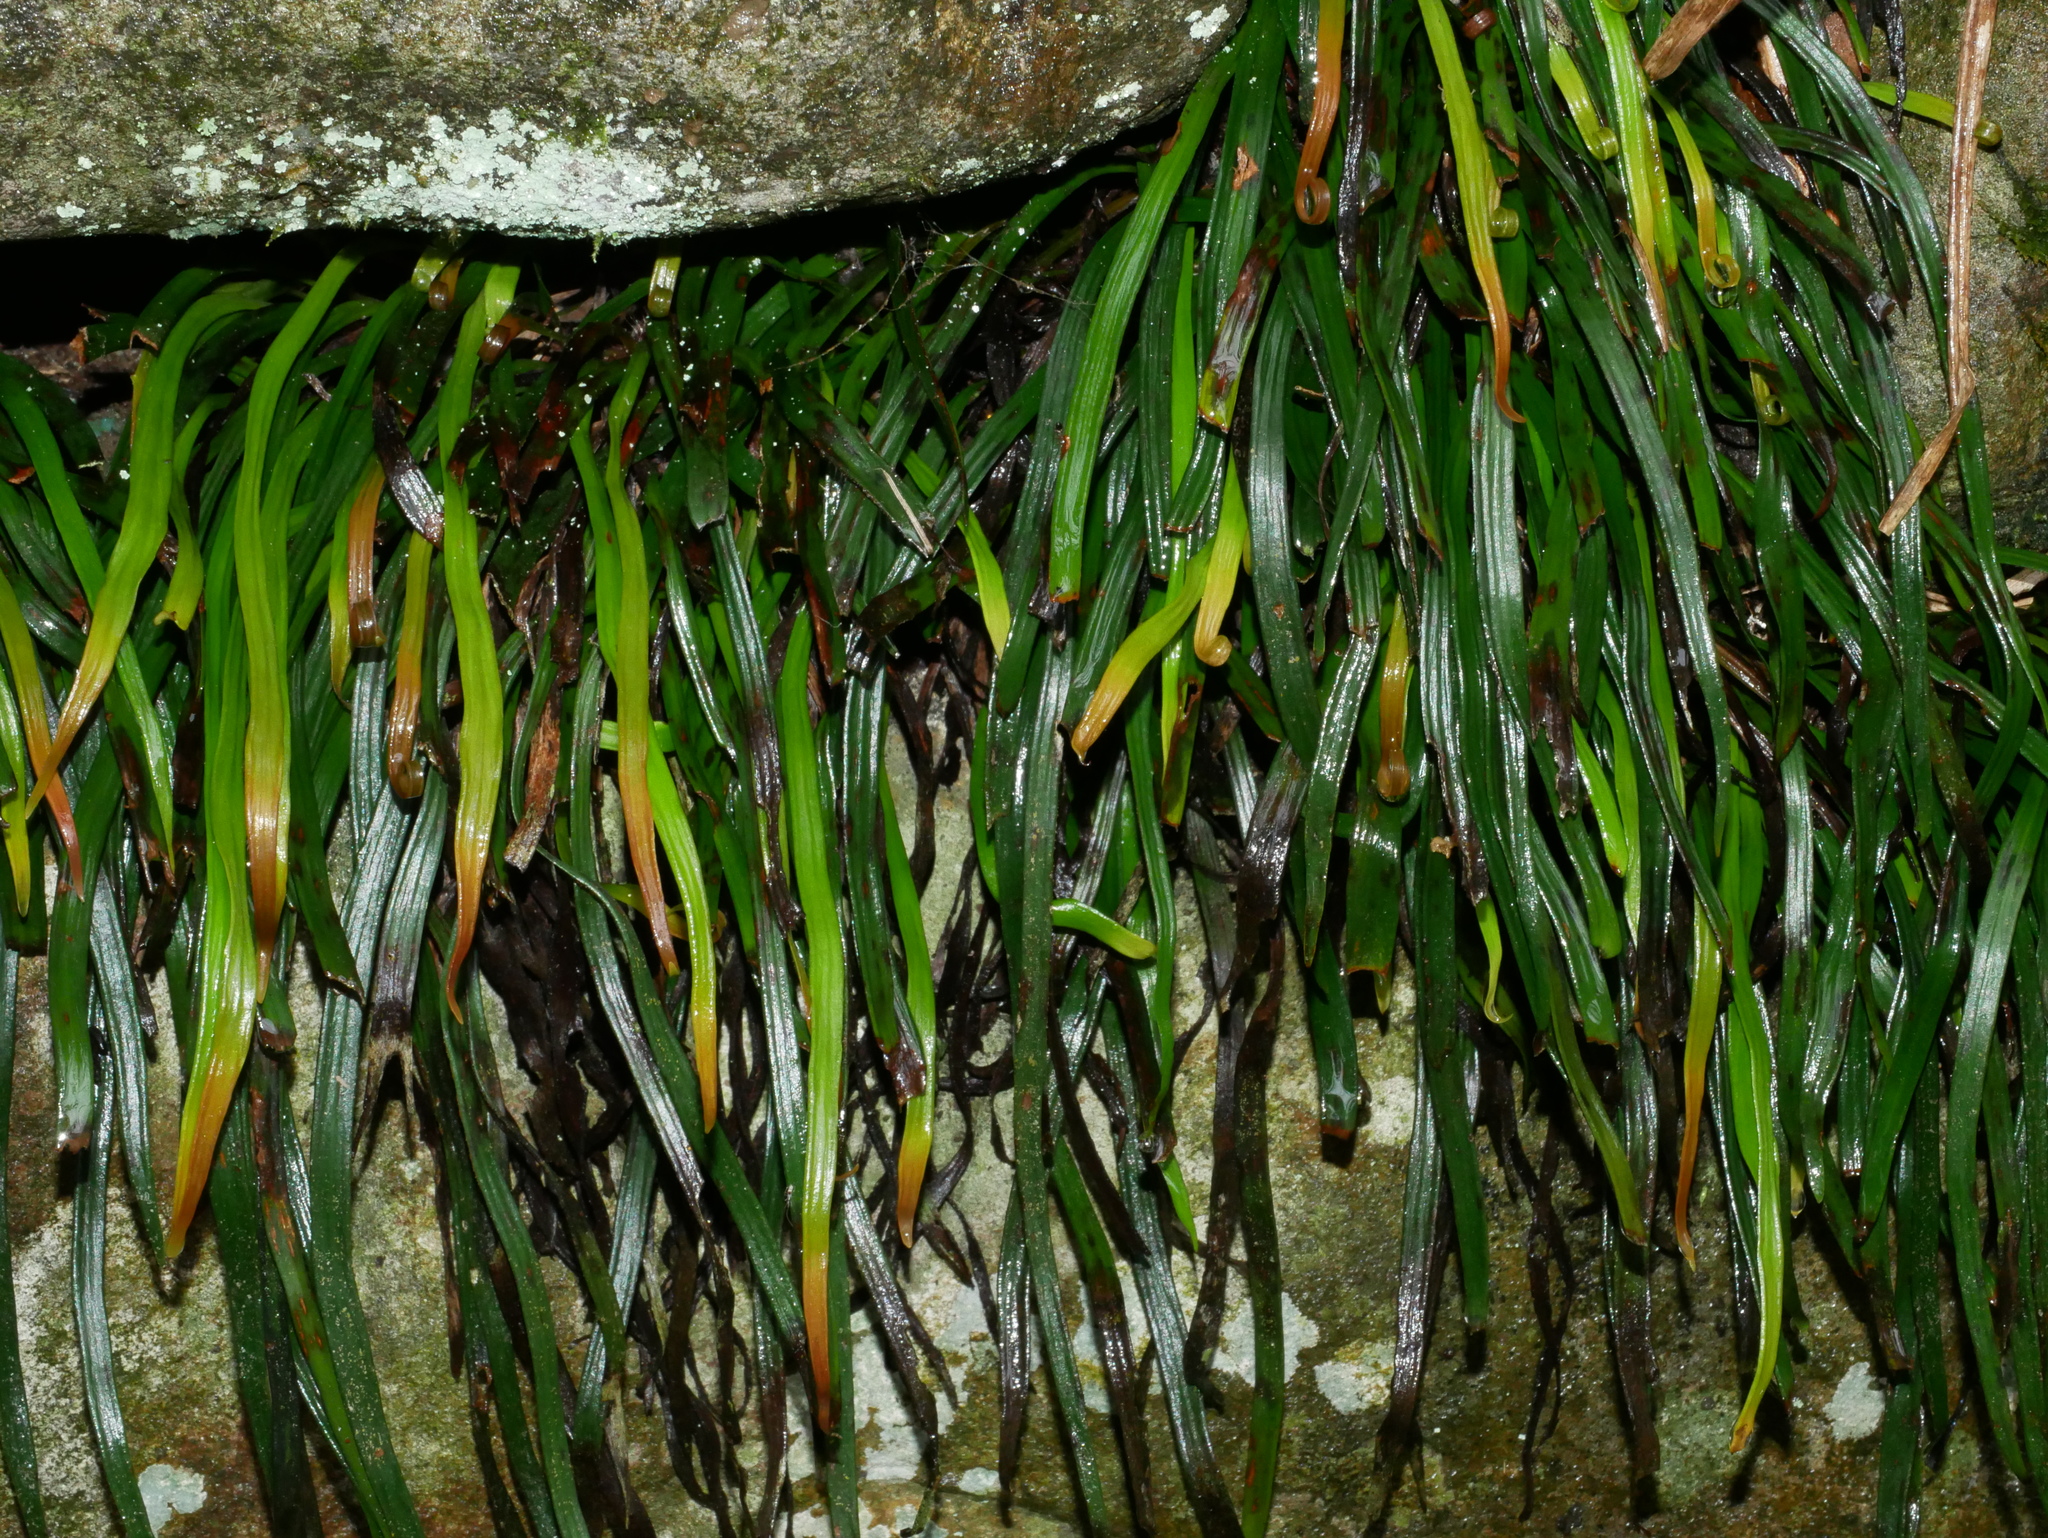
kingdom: Plantae
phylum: Tracheophyta
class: Polypodiopsida
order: Polypodiales
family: Pteridaceae
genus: Haplopteris
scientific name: Haplopteris anguste-elongata
